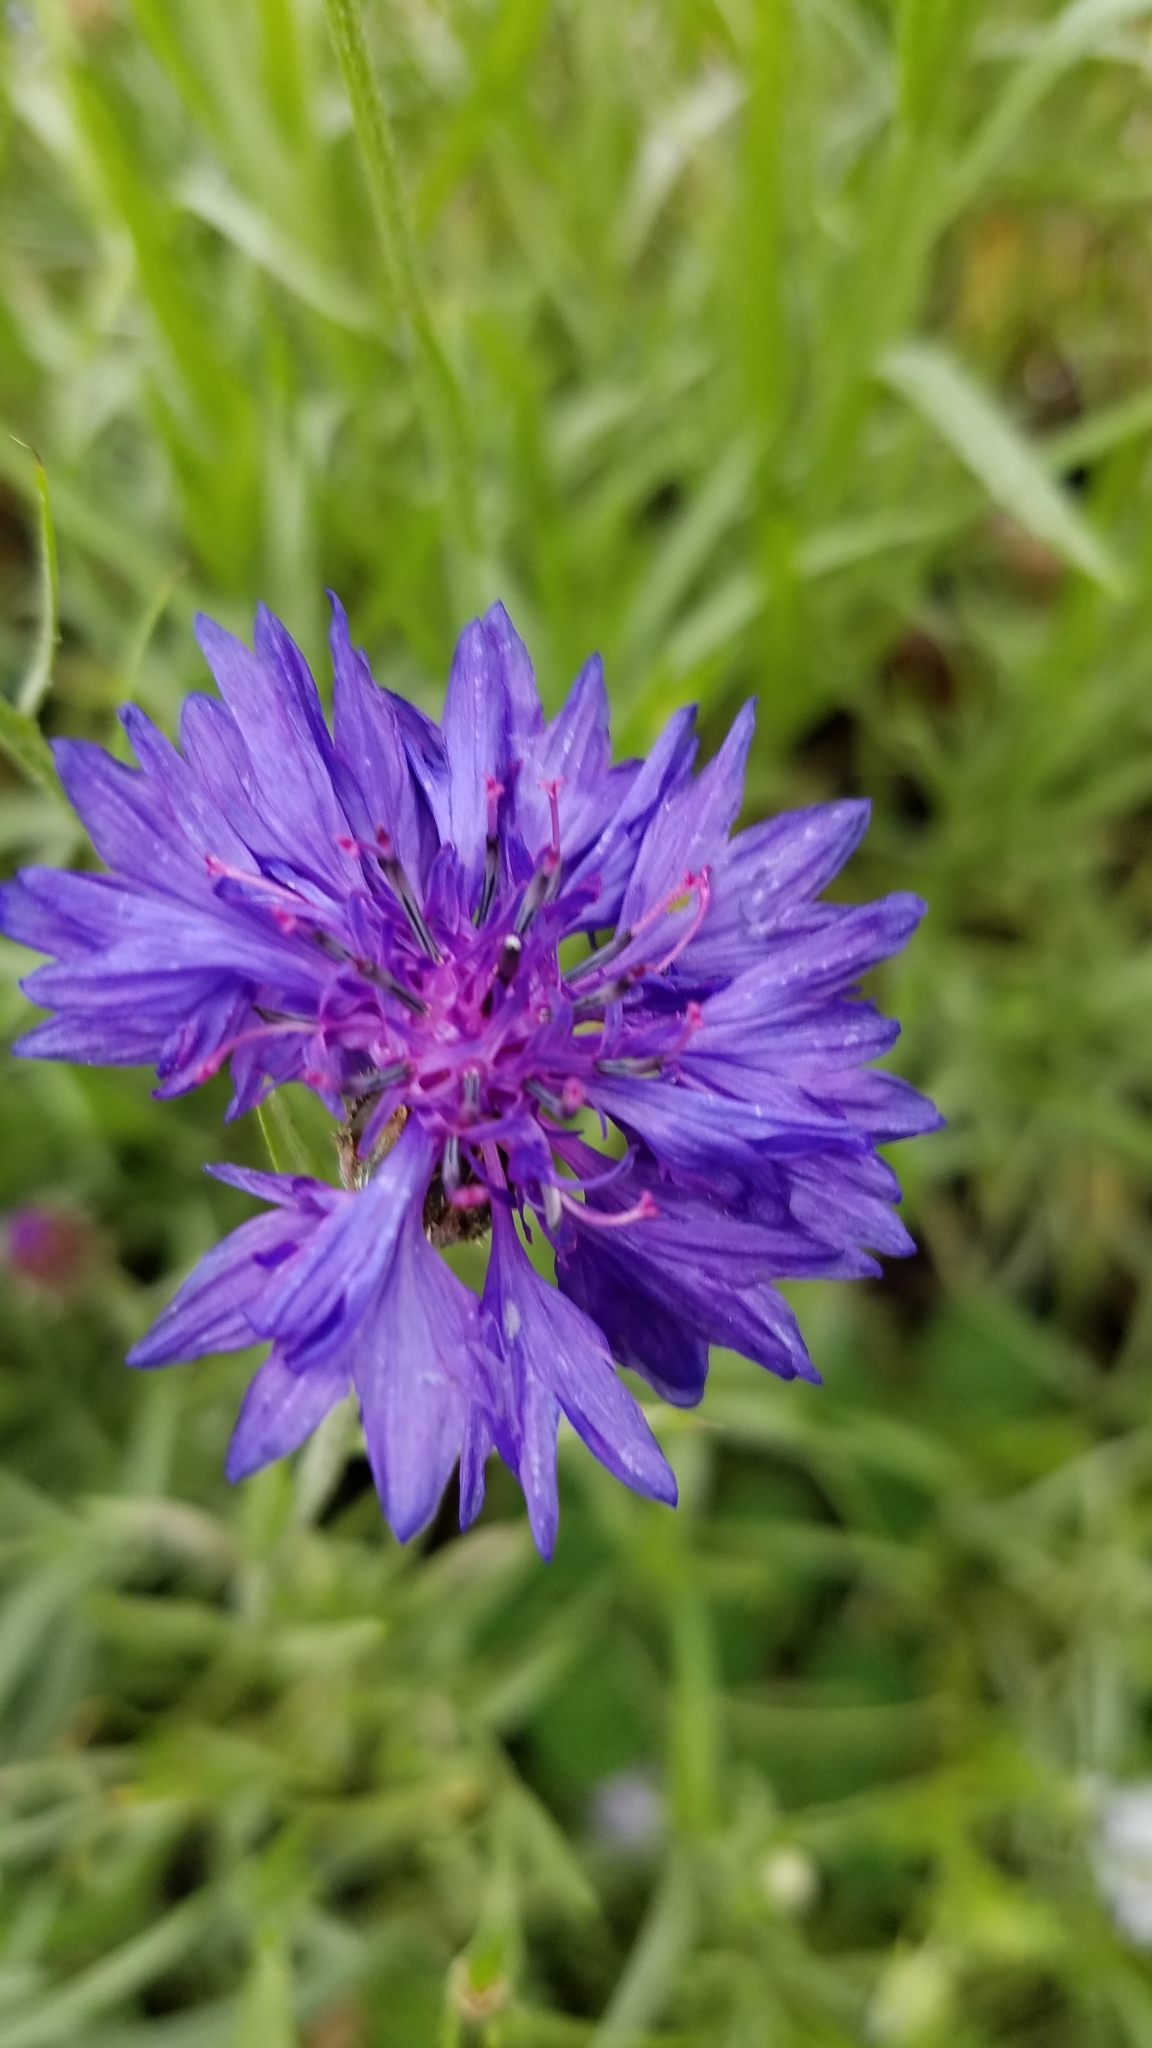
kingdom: Plantae
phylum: Tracheophyta
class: Magnoliopsida
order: Asterales
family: Asteraceae
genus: Centaurea
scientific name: Centaurea cyanus
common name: Cornflower
